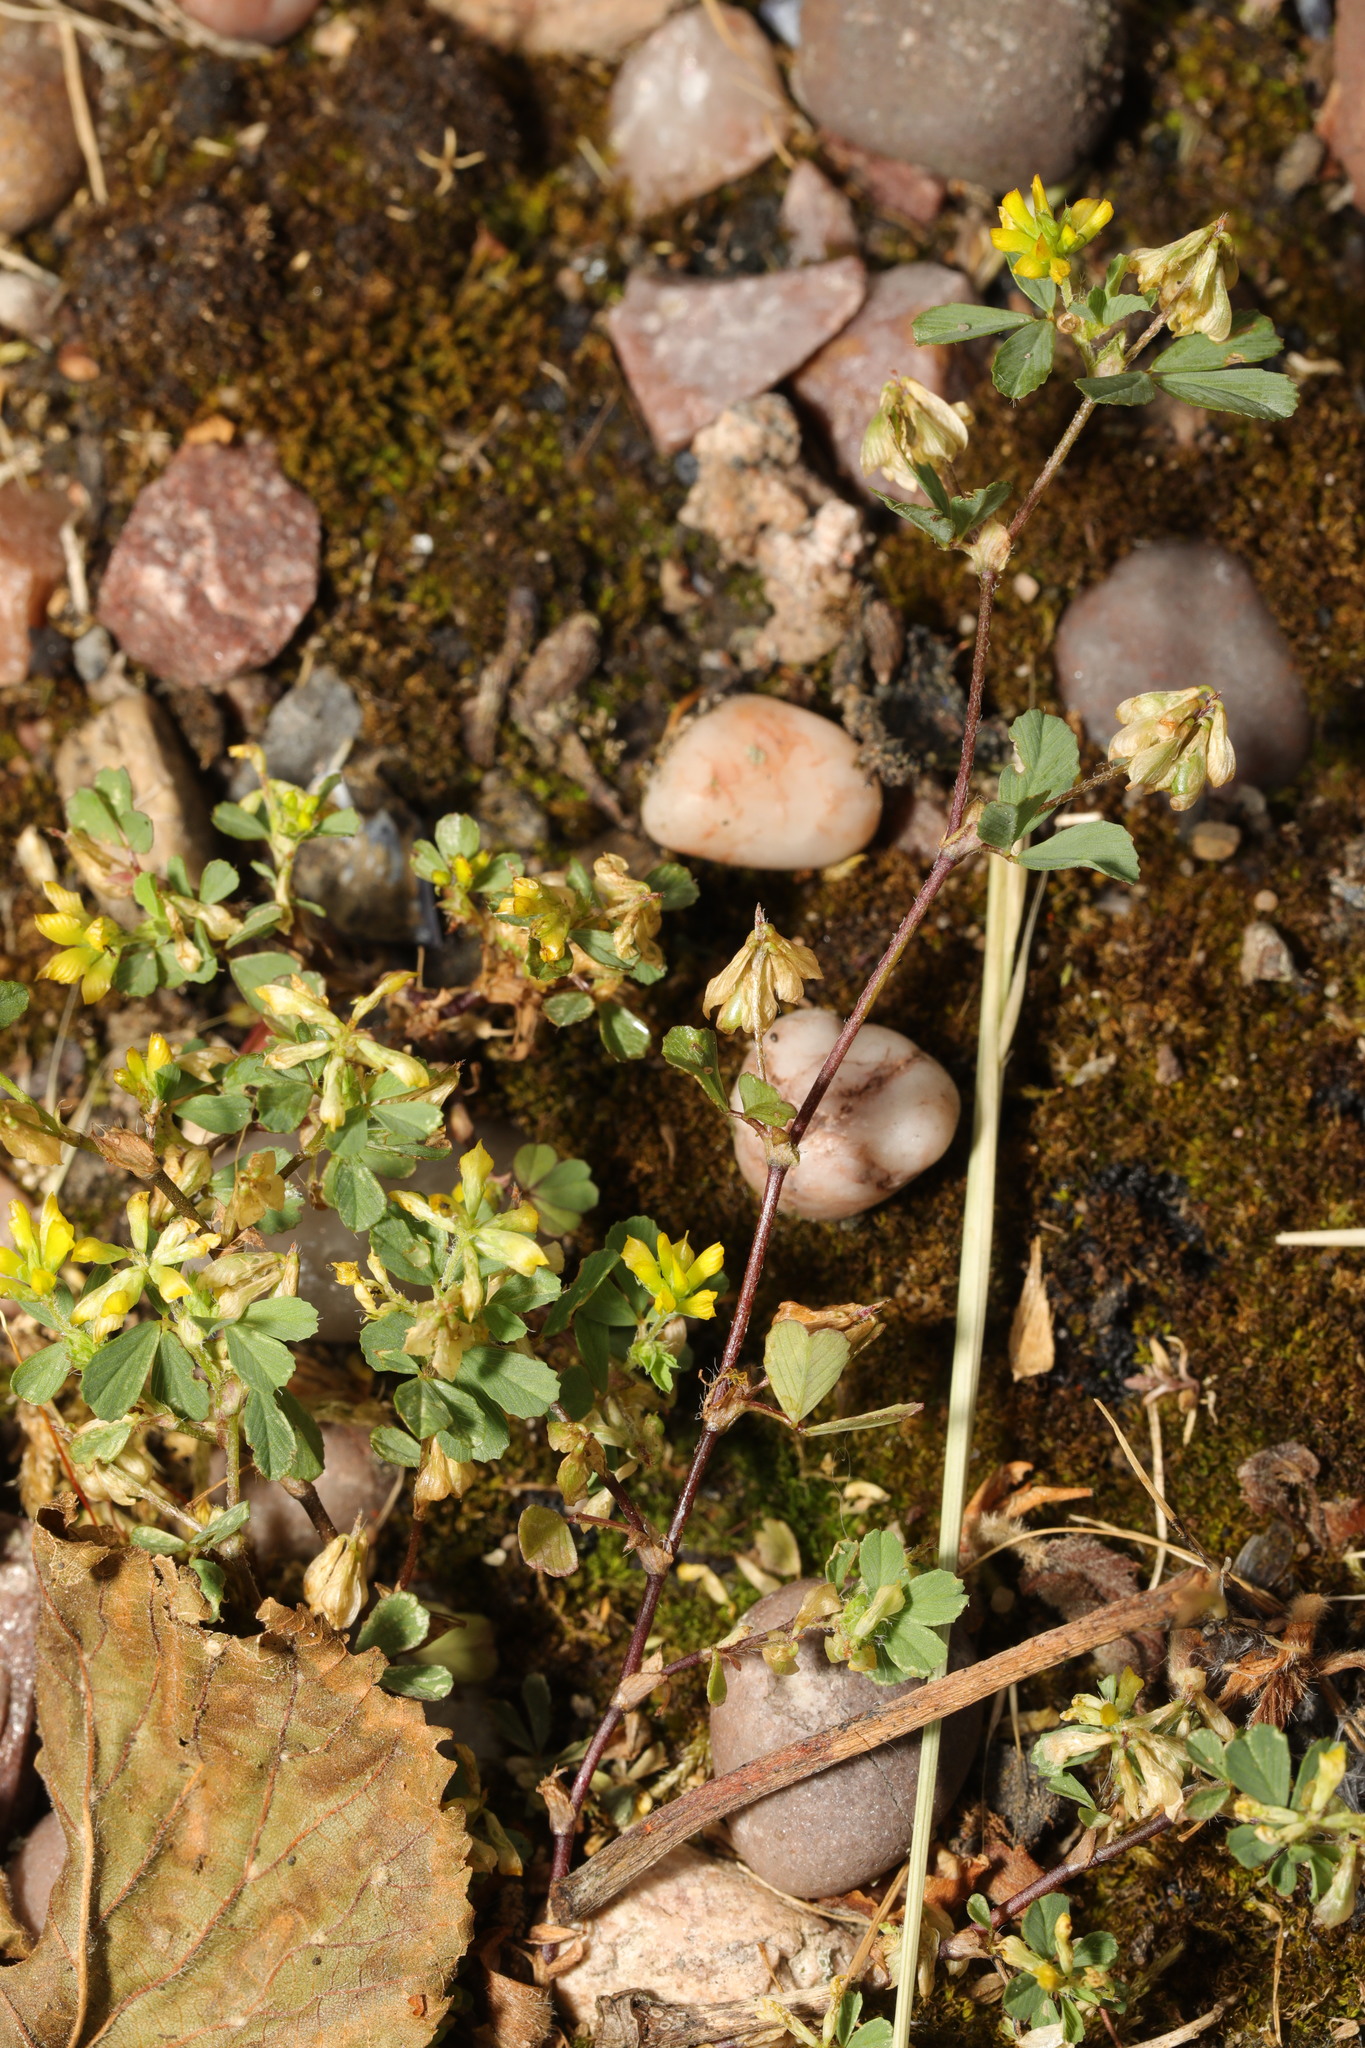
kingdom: Plantae
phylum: Tracheophyta
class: Magnoliopsida
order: Fabales
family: Fabaceae
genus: Trifolium
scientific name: Trifolium dubium
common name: Suckling clover
